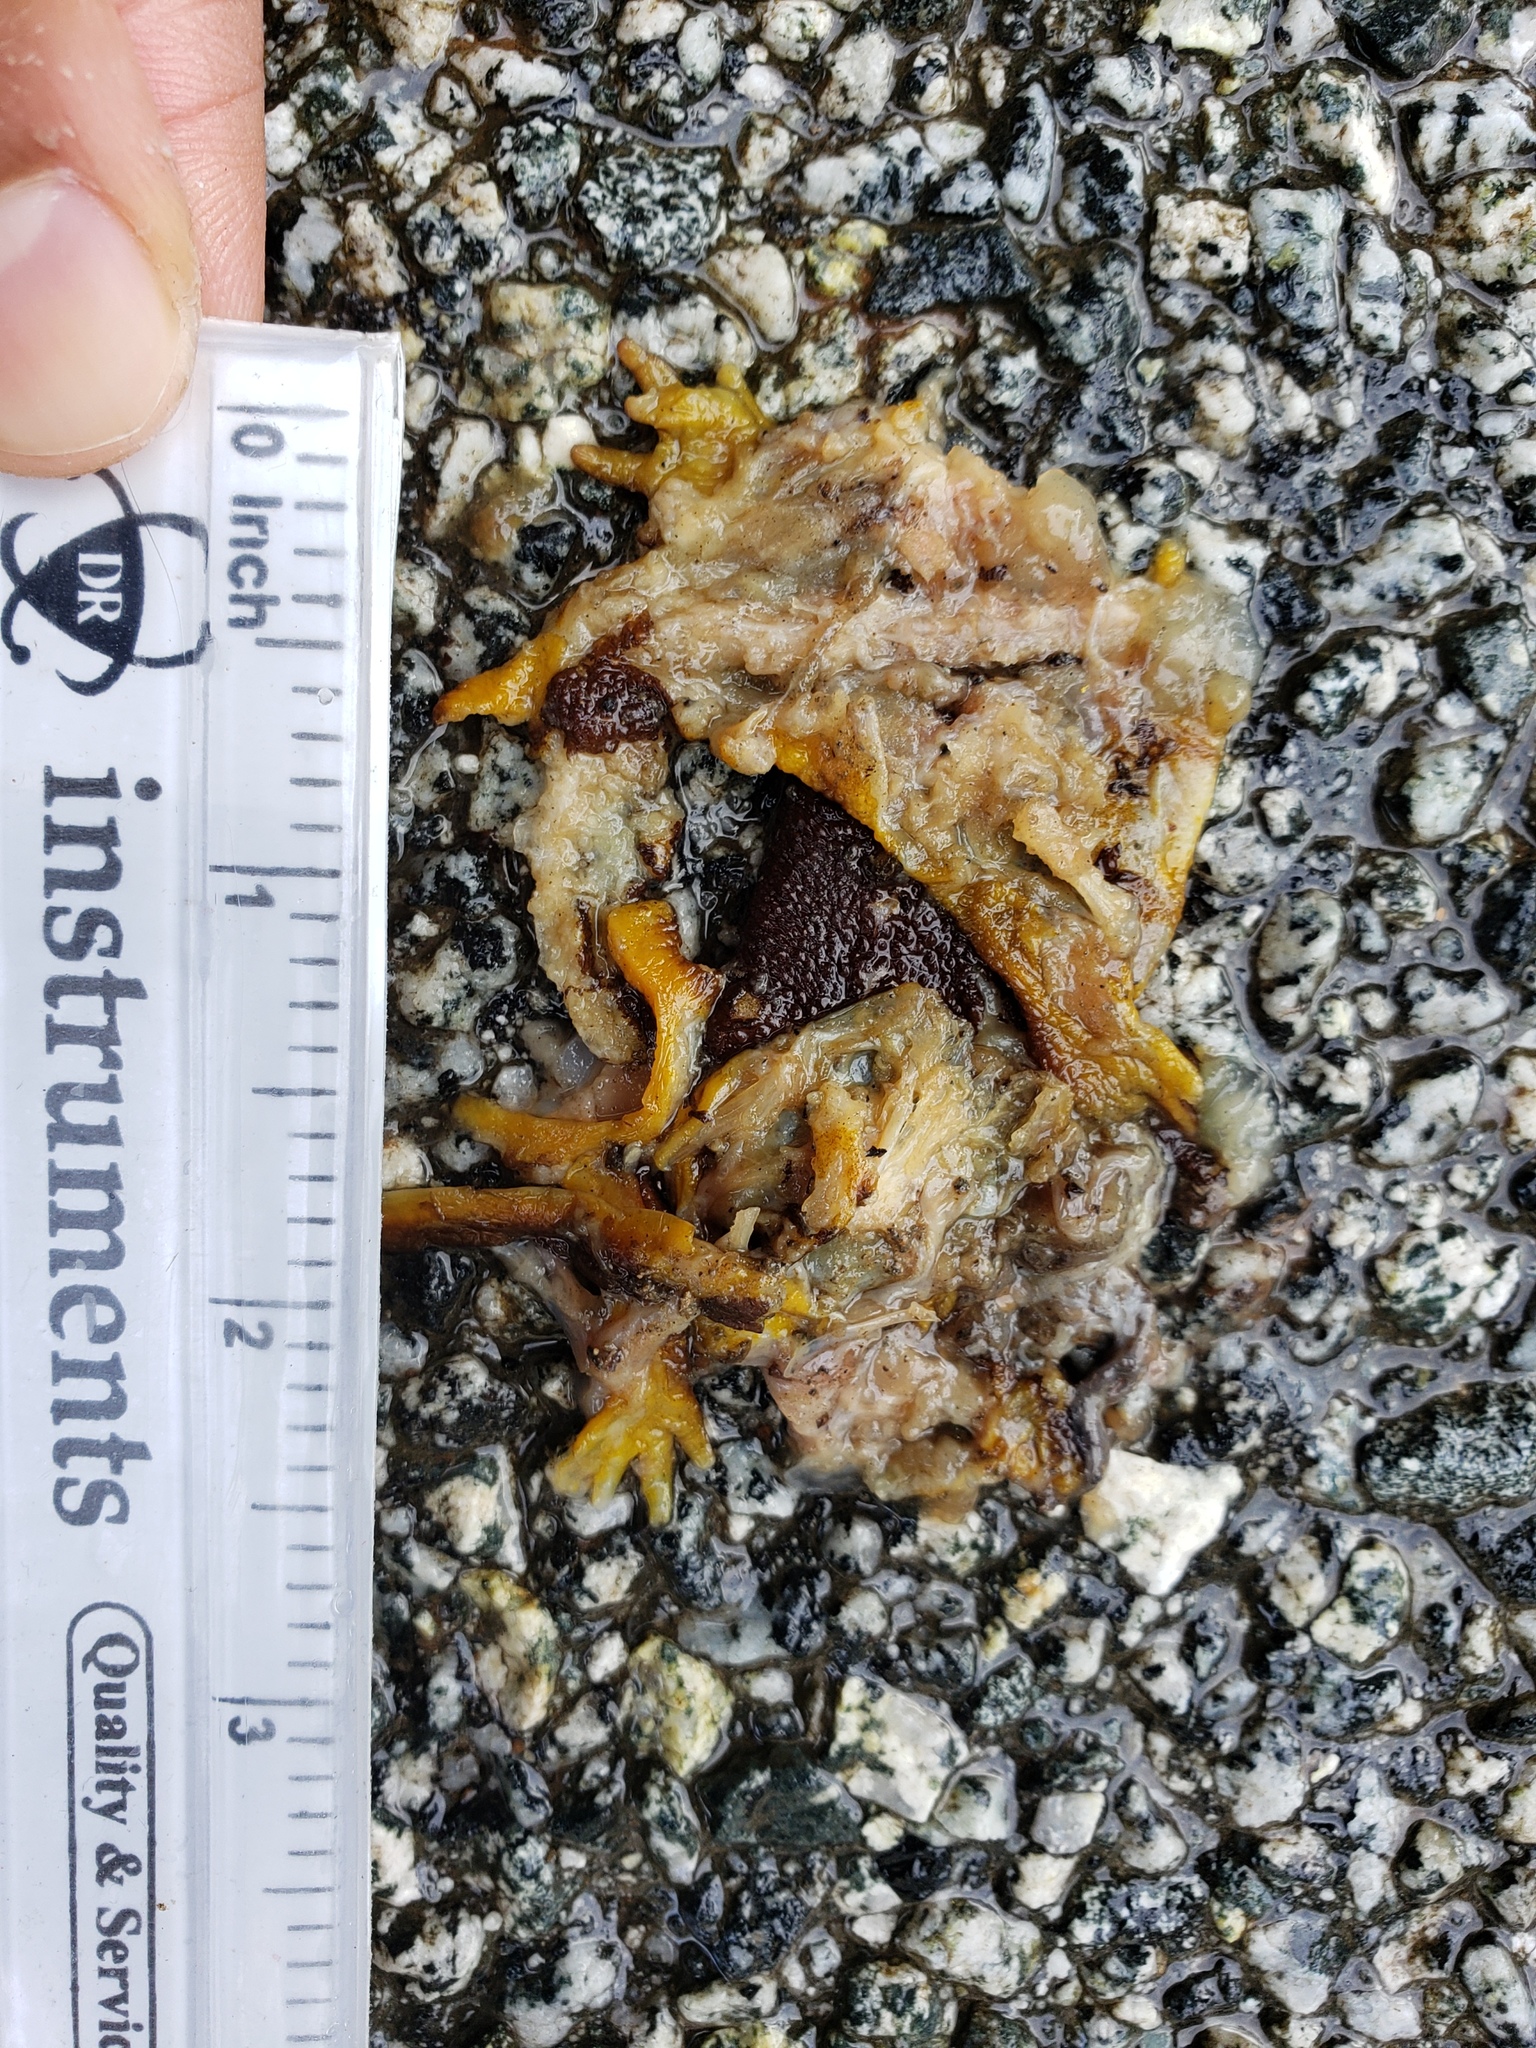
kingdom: Animalia
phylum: Chordata
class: Amphibia
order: Caudata
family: Salamandridae
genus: Taricha
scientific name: Taricha
